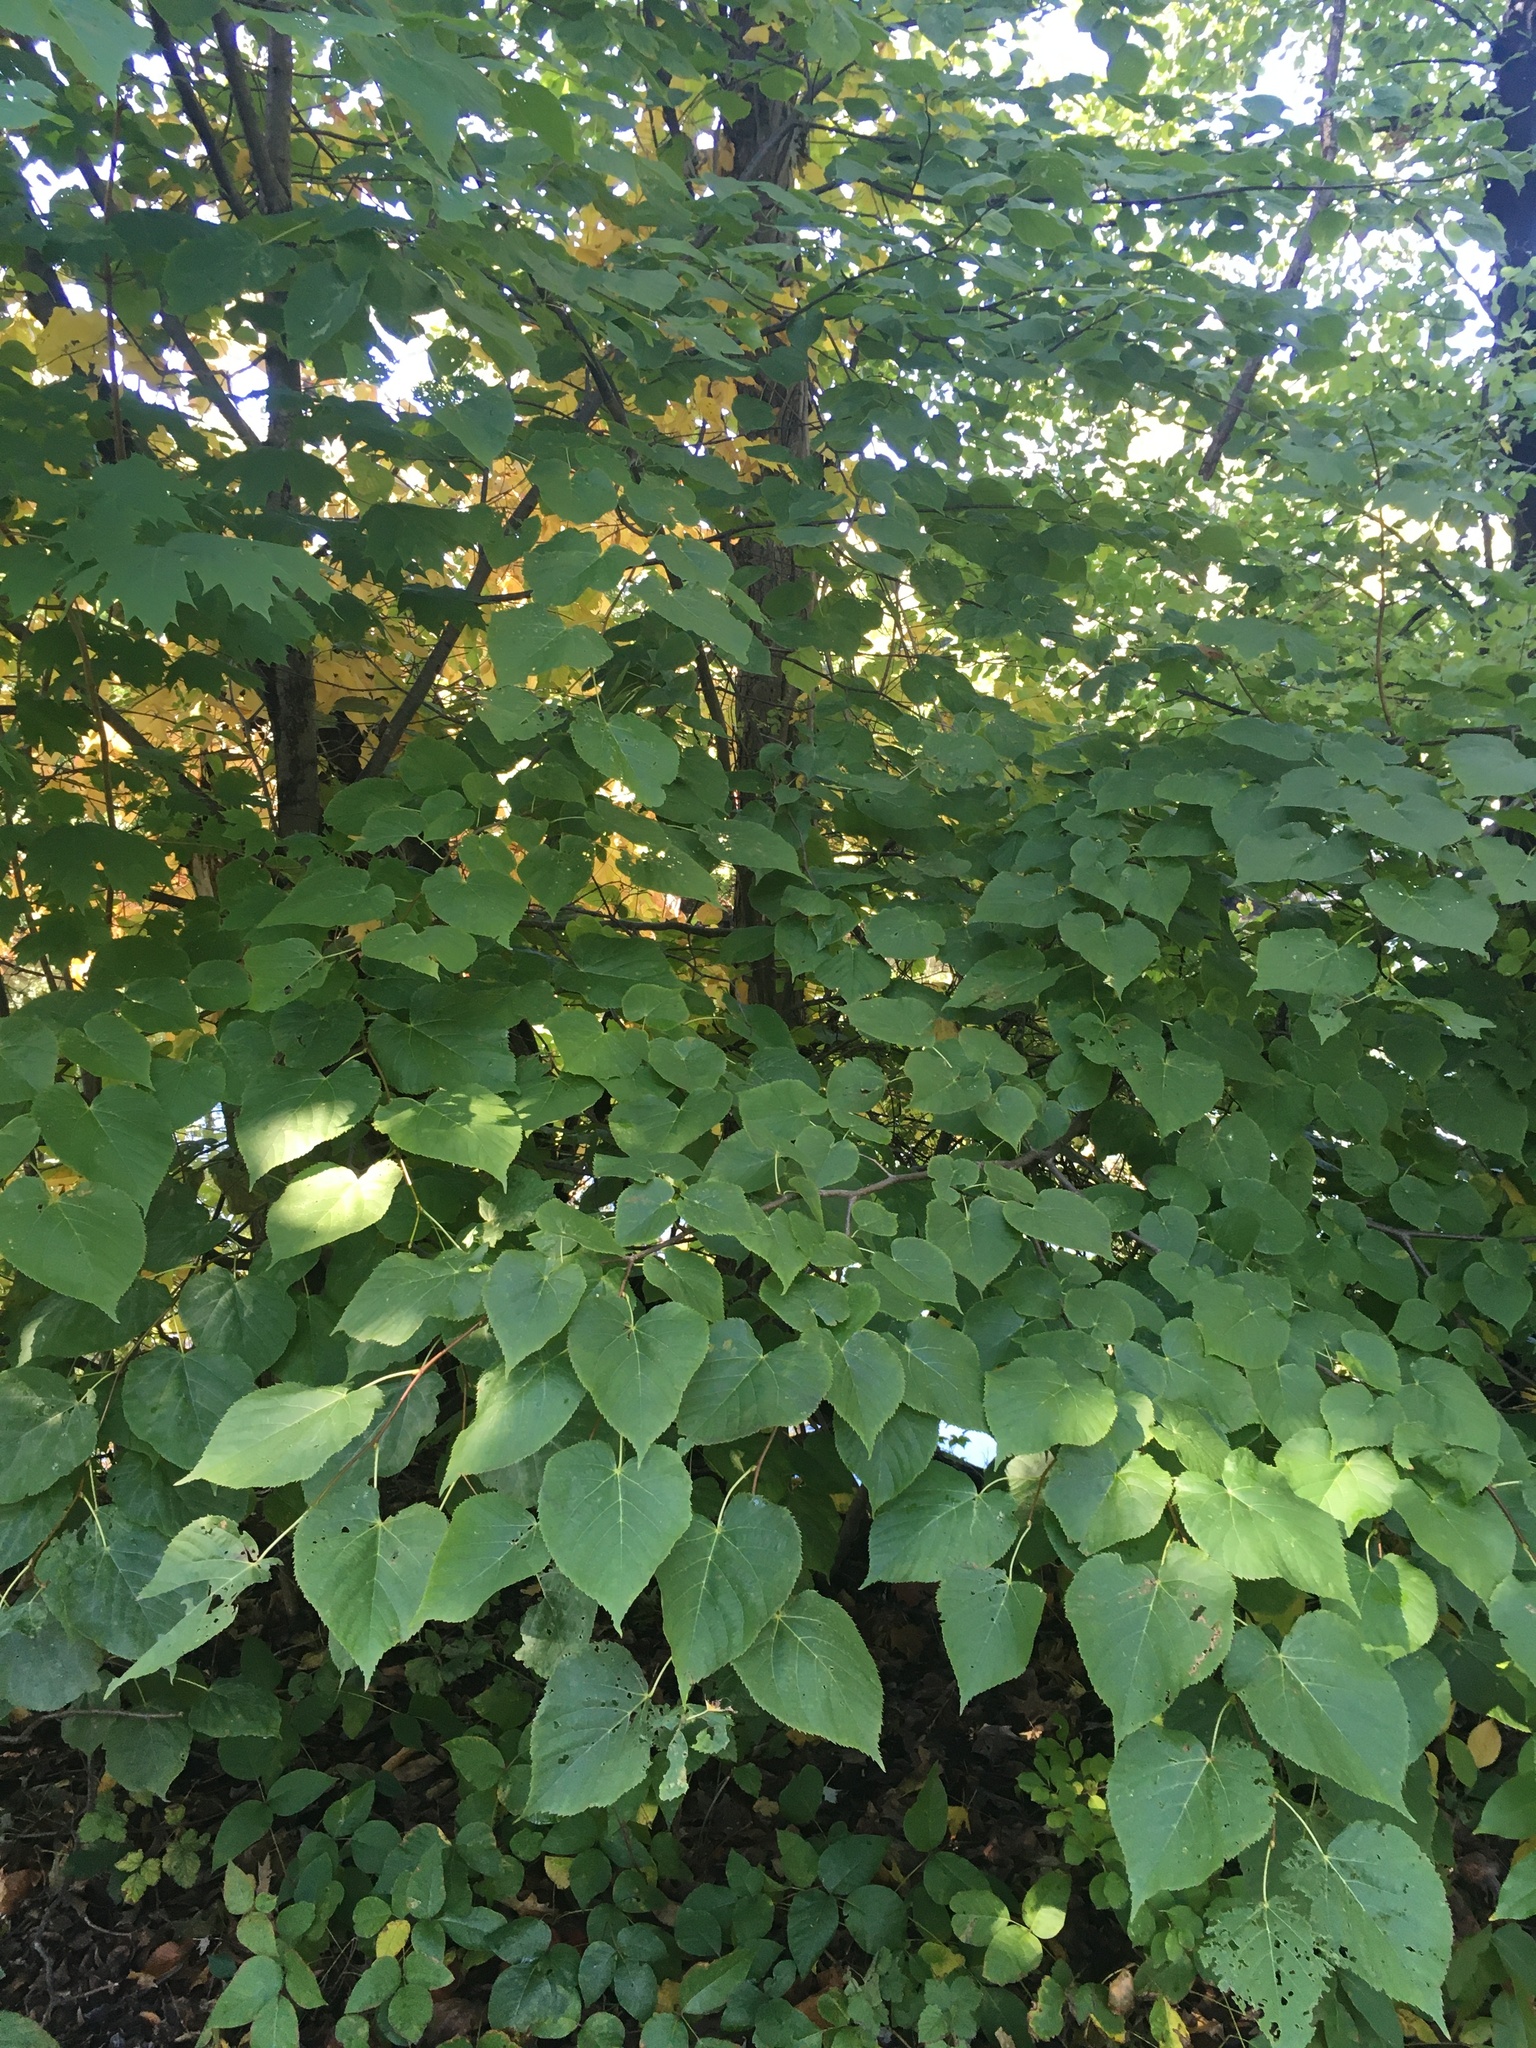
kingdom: Plantae
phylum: Tracheophyta
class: Magnoliopsida
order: Malvales
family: Malvaceae
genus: Tilia
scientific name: Tilia americana
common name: Basswood
